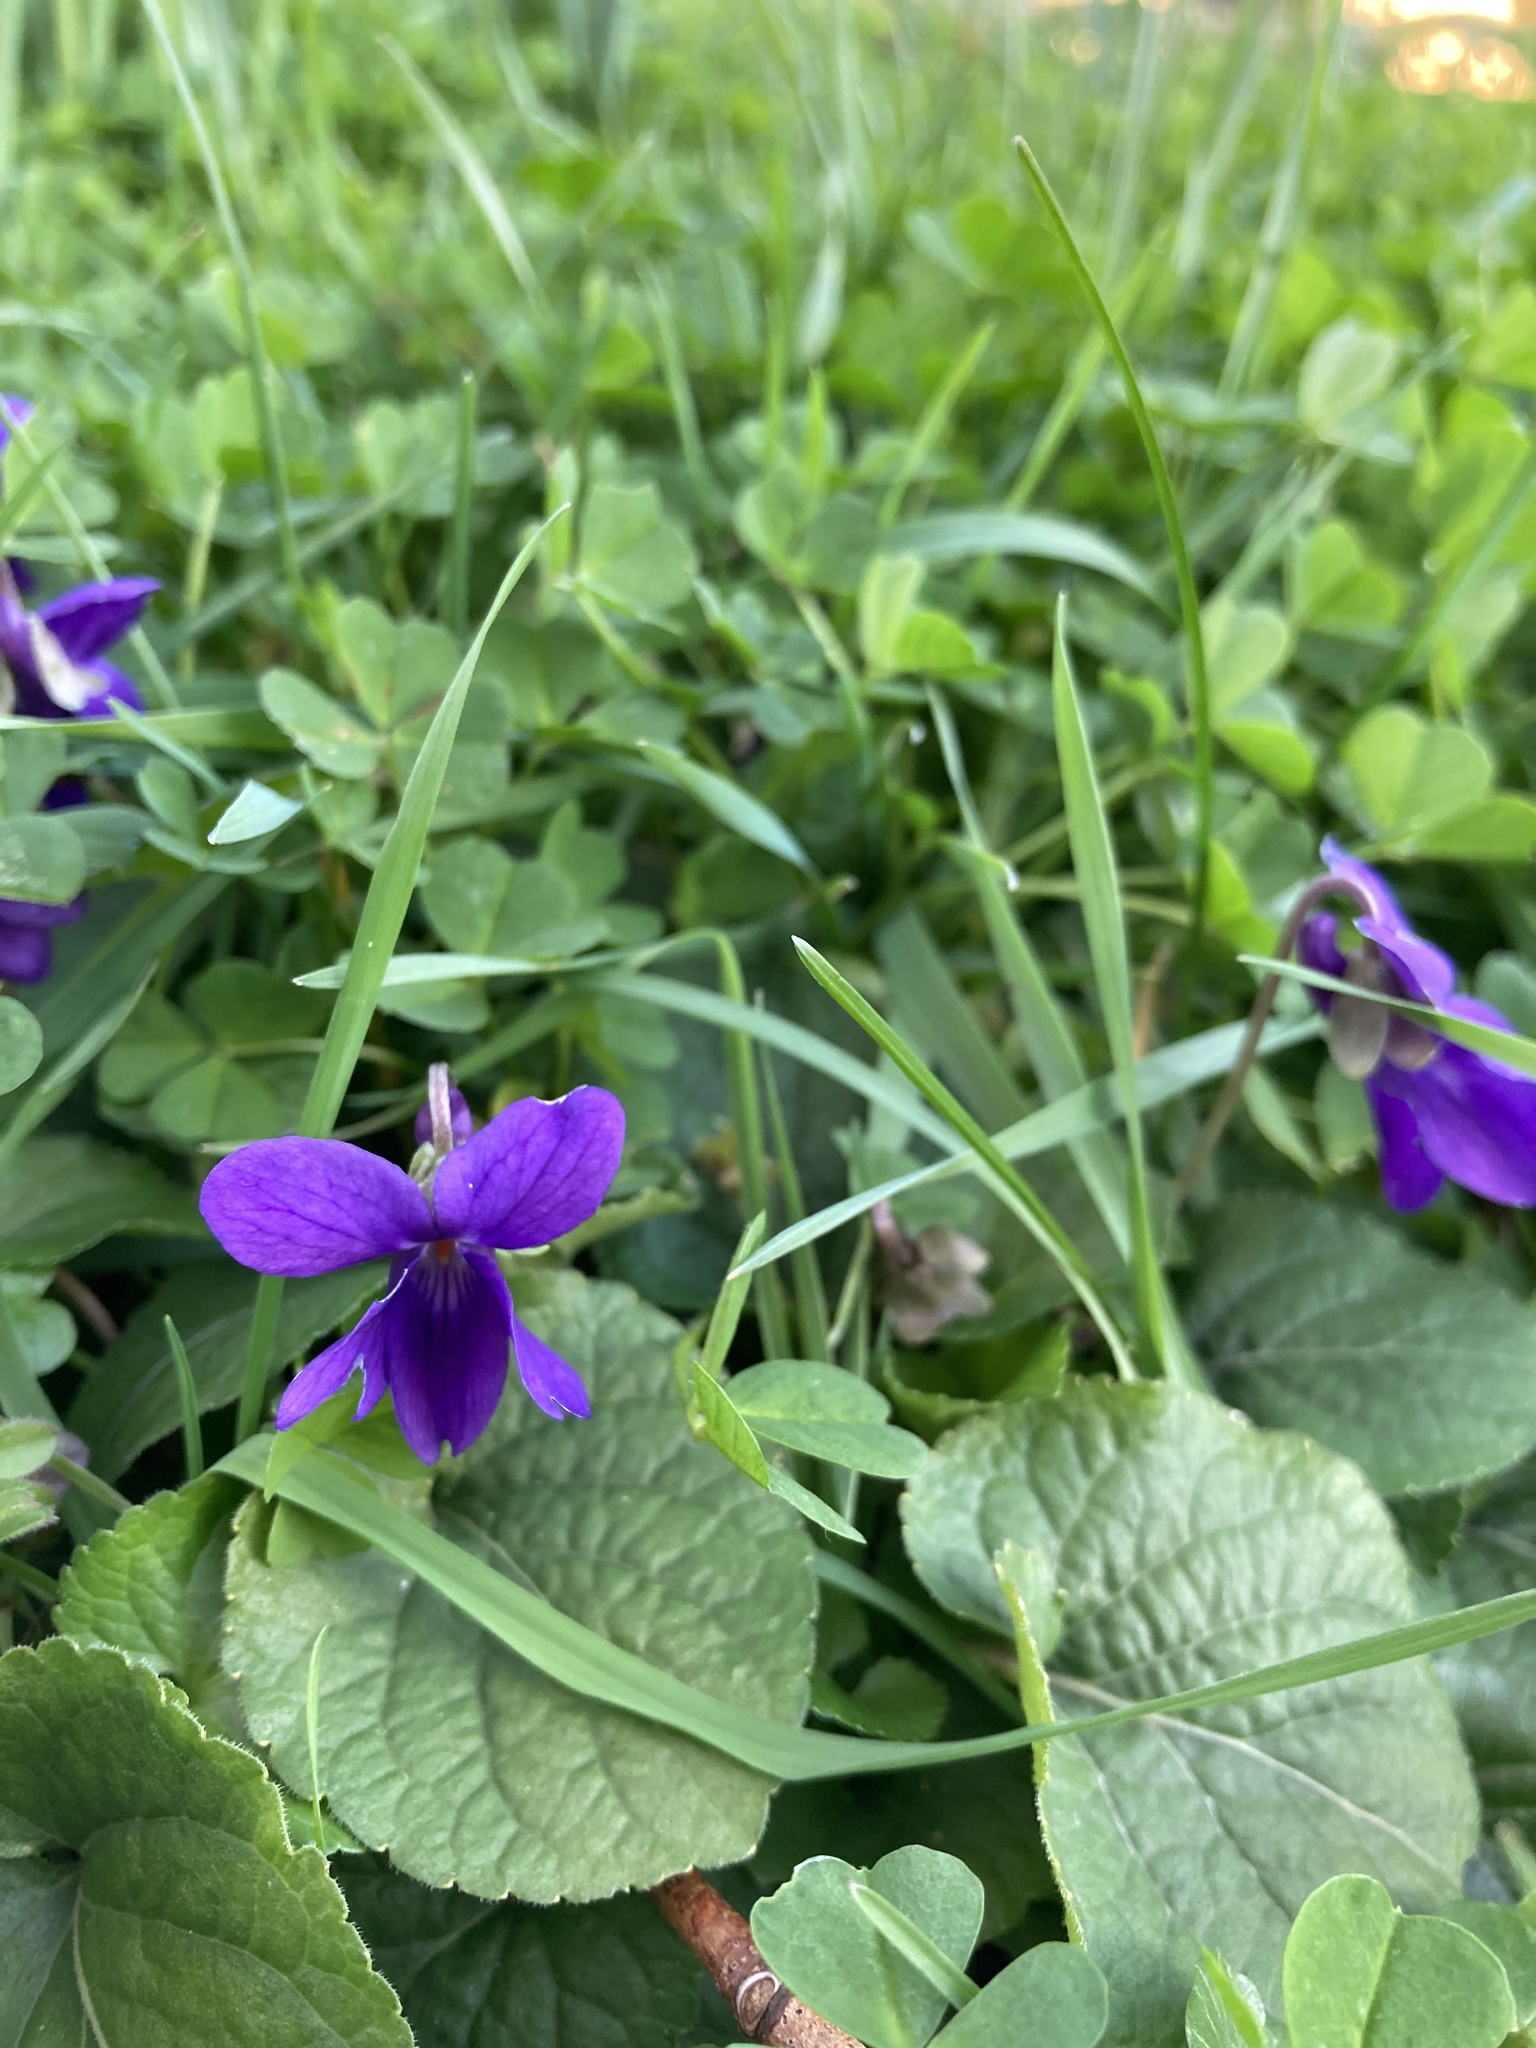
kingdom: Plantae
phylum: Tracheophyta
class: Magnoliopsida
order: Malpighiales
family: Violaceae
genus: Viola
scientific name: Viola odorata
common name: Sweet violet
